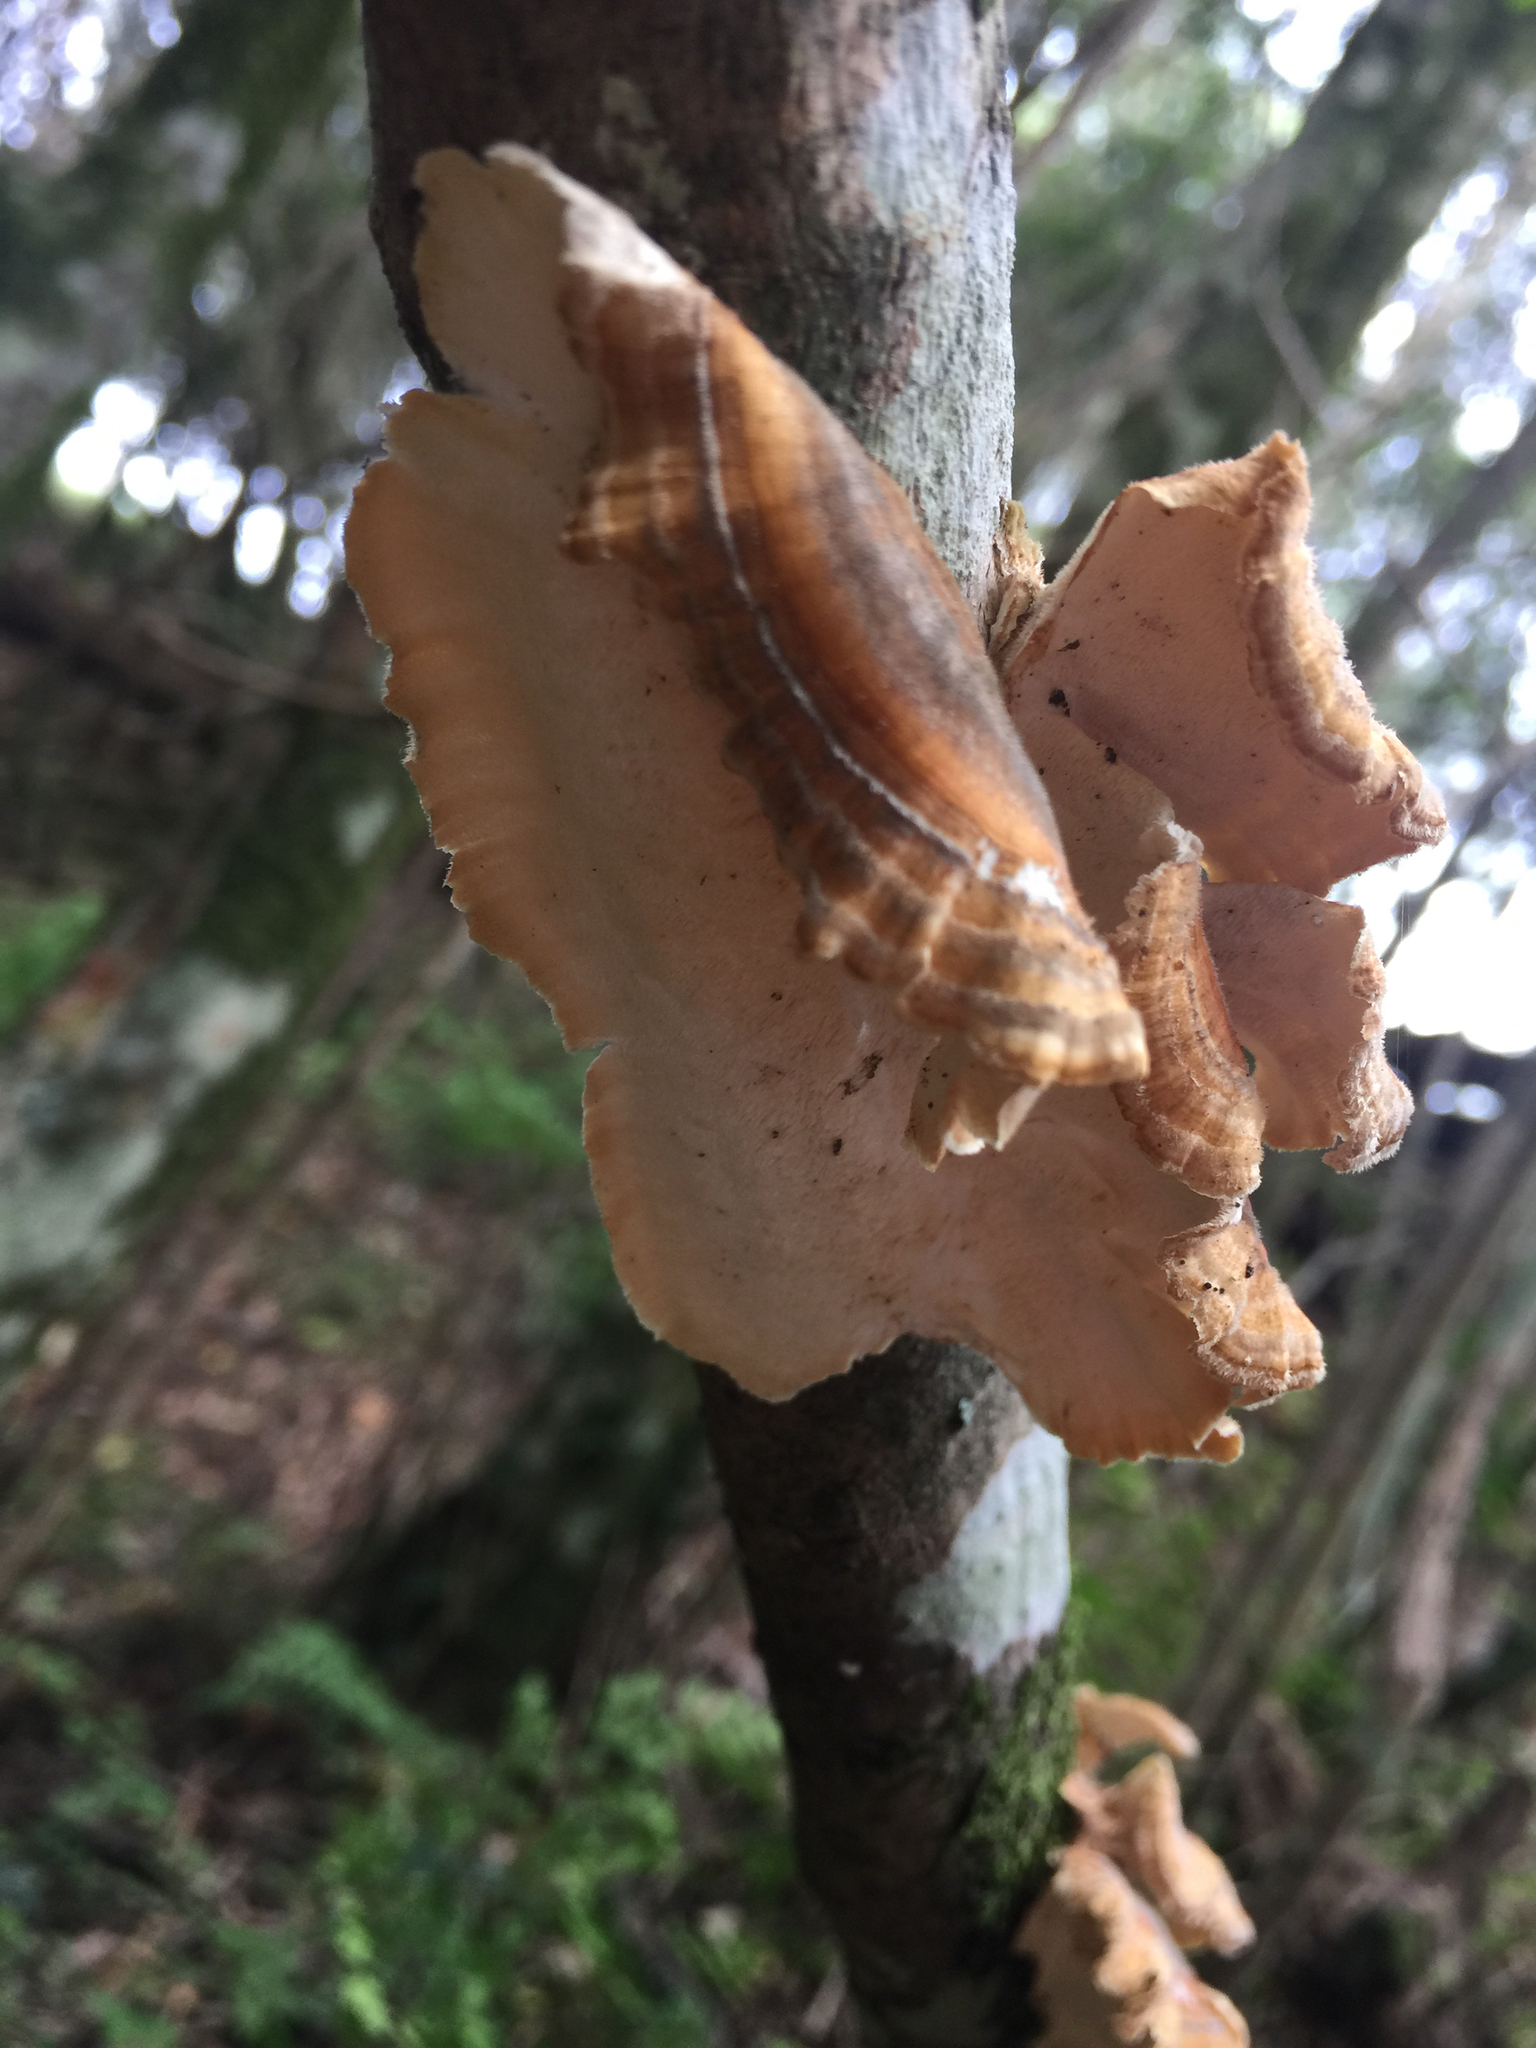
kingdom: Fungi
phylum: Basidiomycota
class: Agaricomycetes
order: Polyporales
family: Polyporaceae
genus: Trametes
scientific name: Trametes versicolor
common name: Turkeytail
